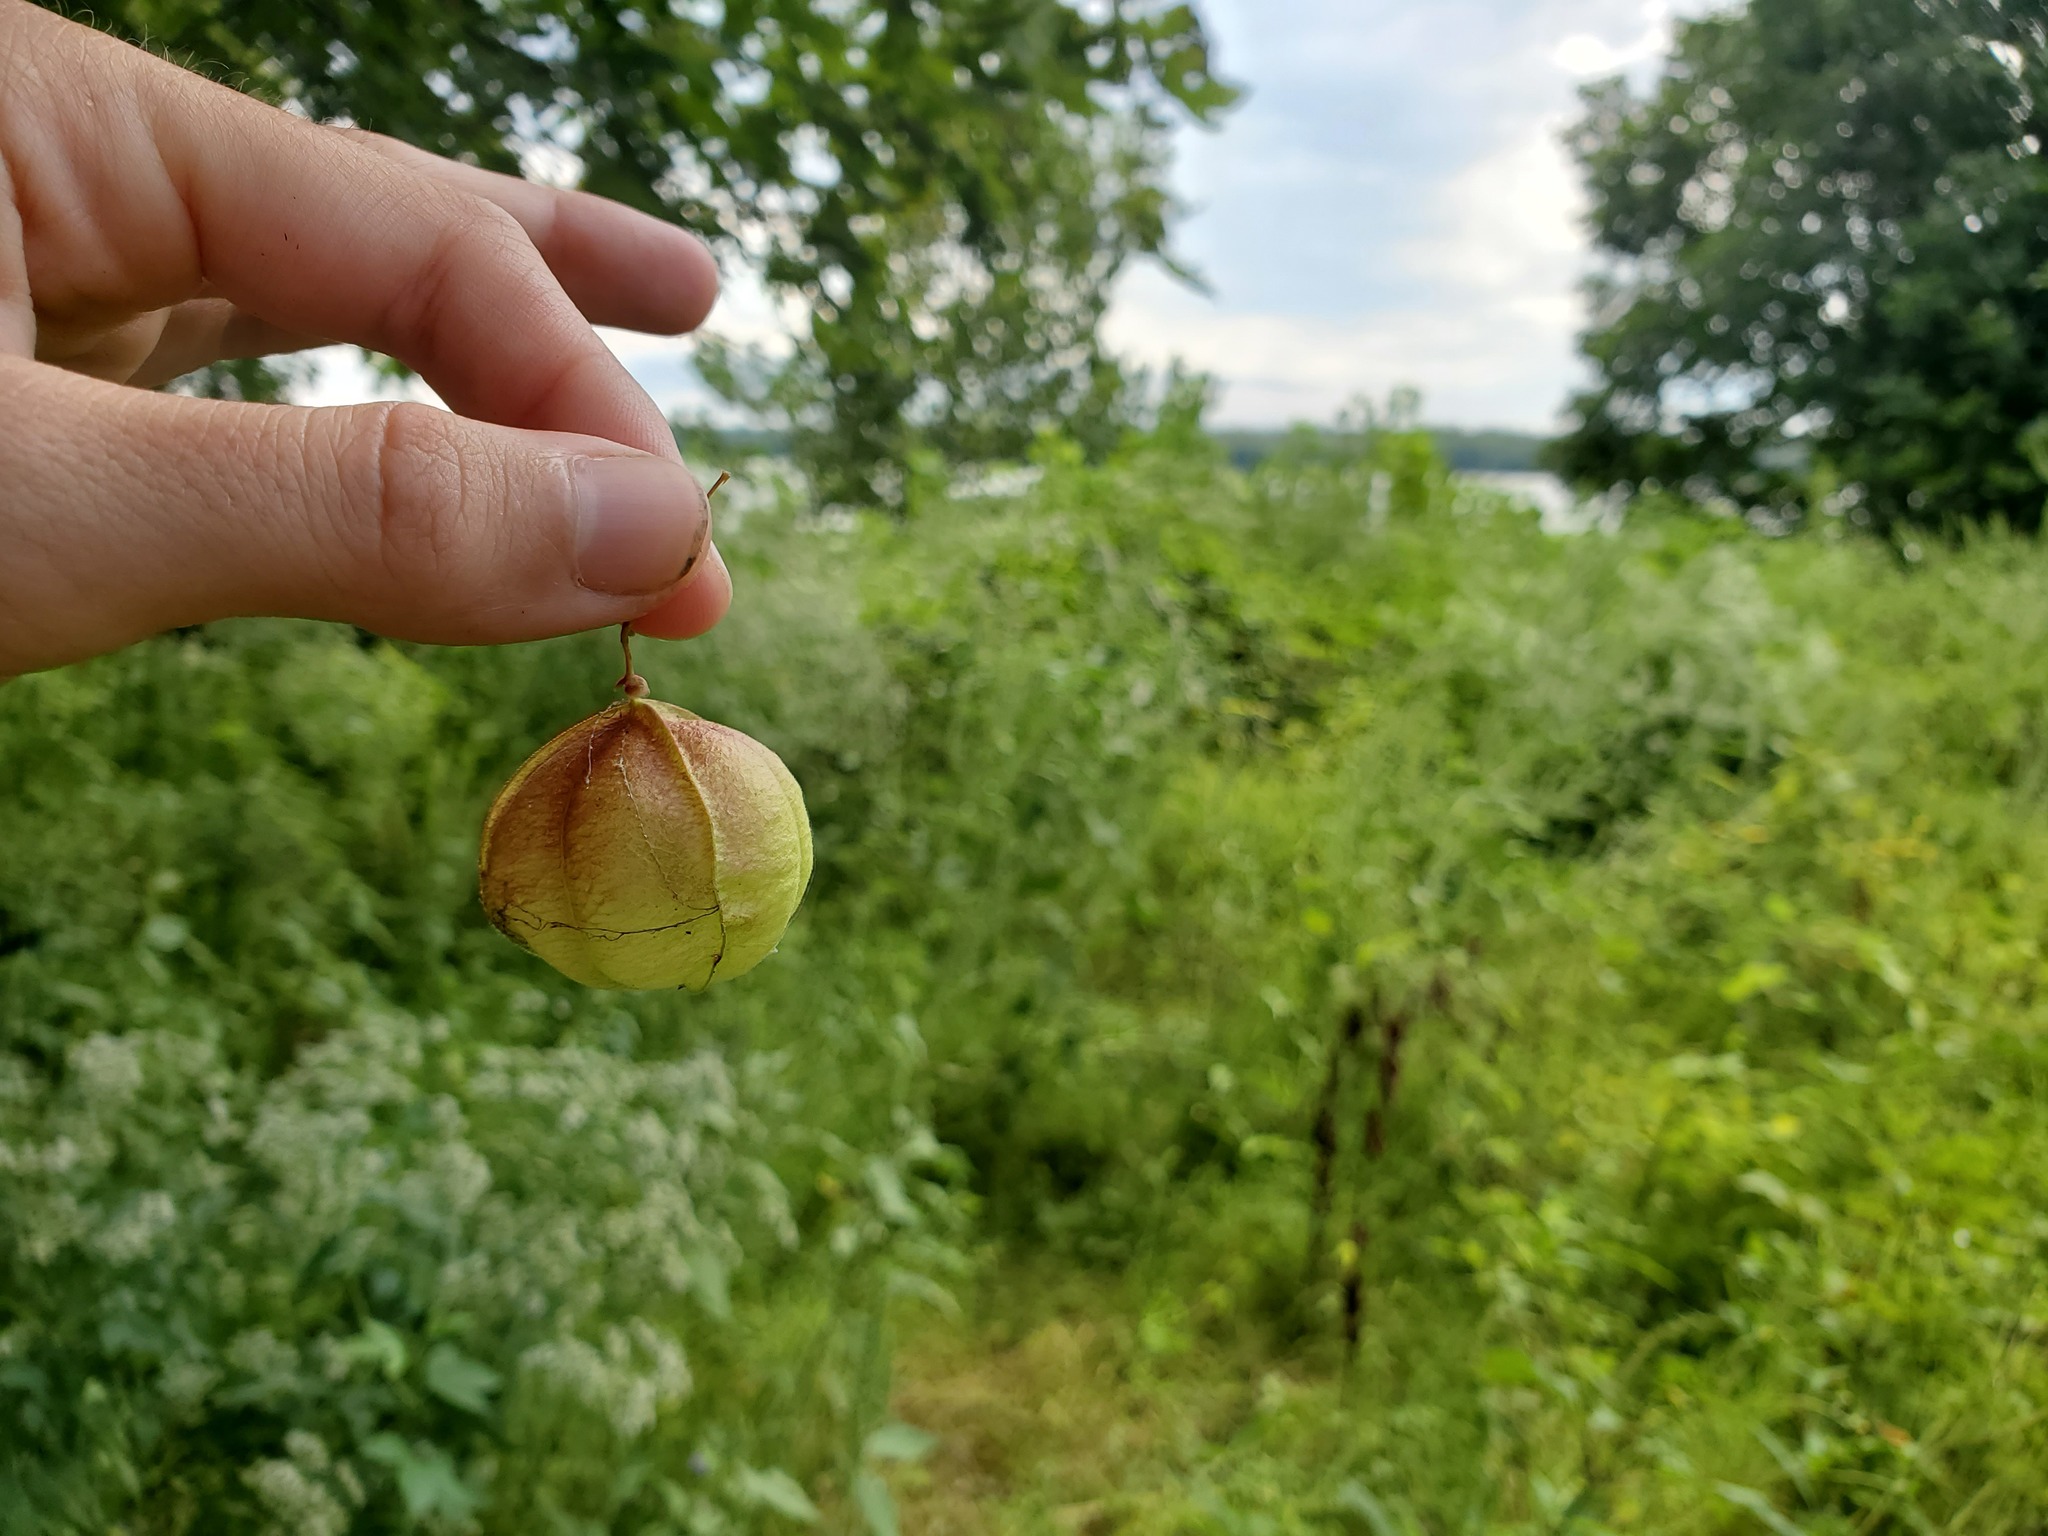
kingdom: Plantae
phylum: Tracheophyta
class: Magnoliopsida
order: Sapindales
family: Sapindaceae
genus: Cardiospermum
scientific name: Cardiospermum halicacabum
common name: Balloon vine
